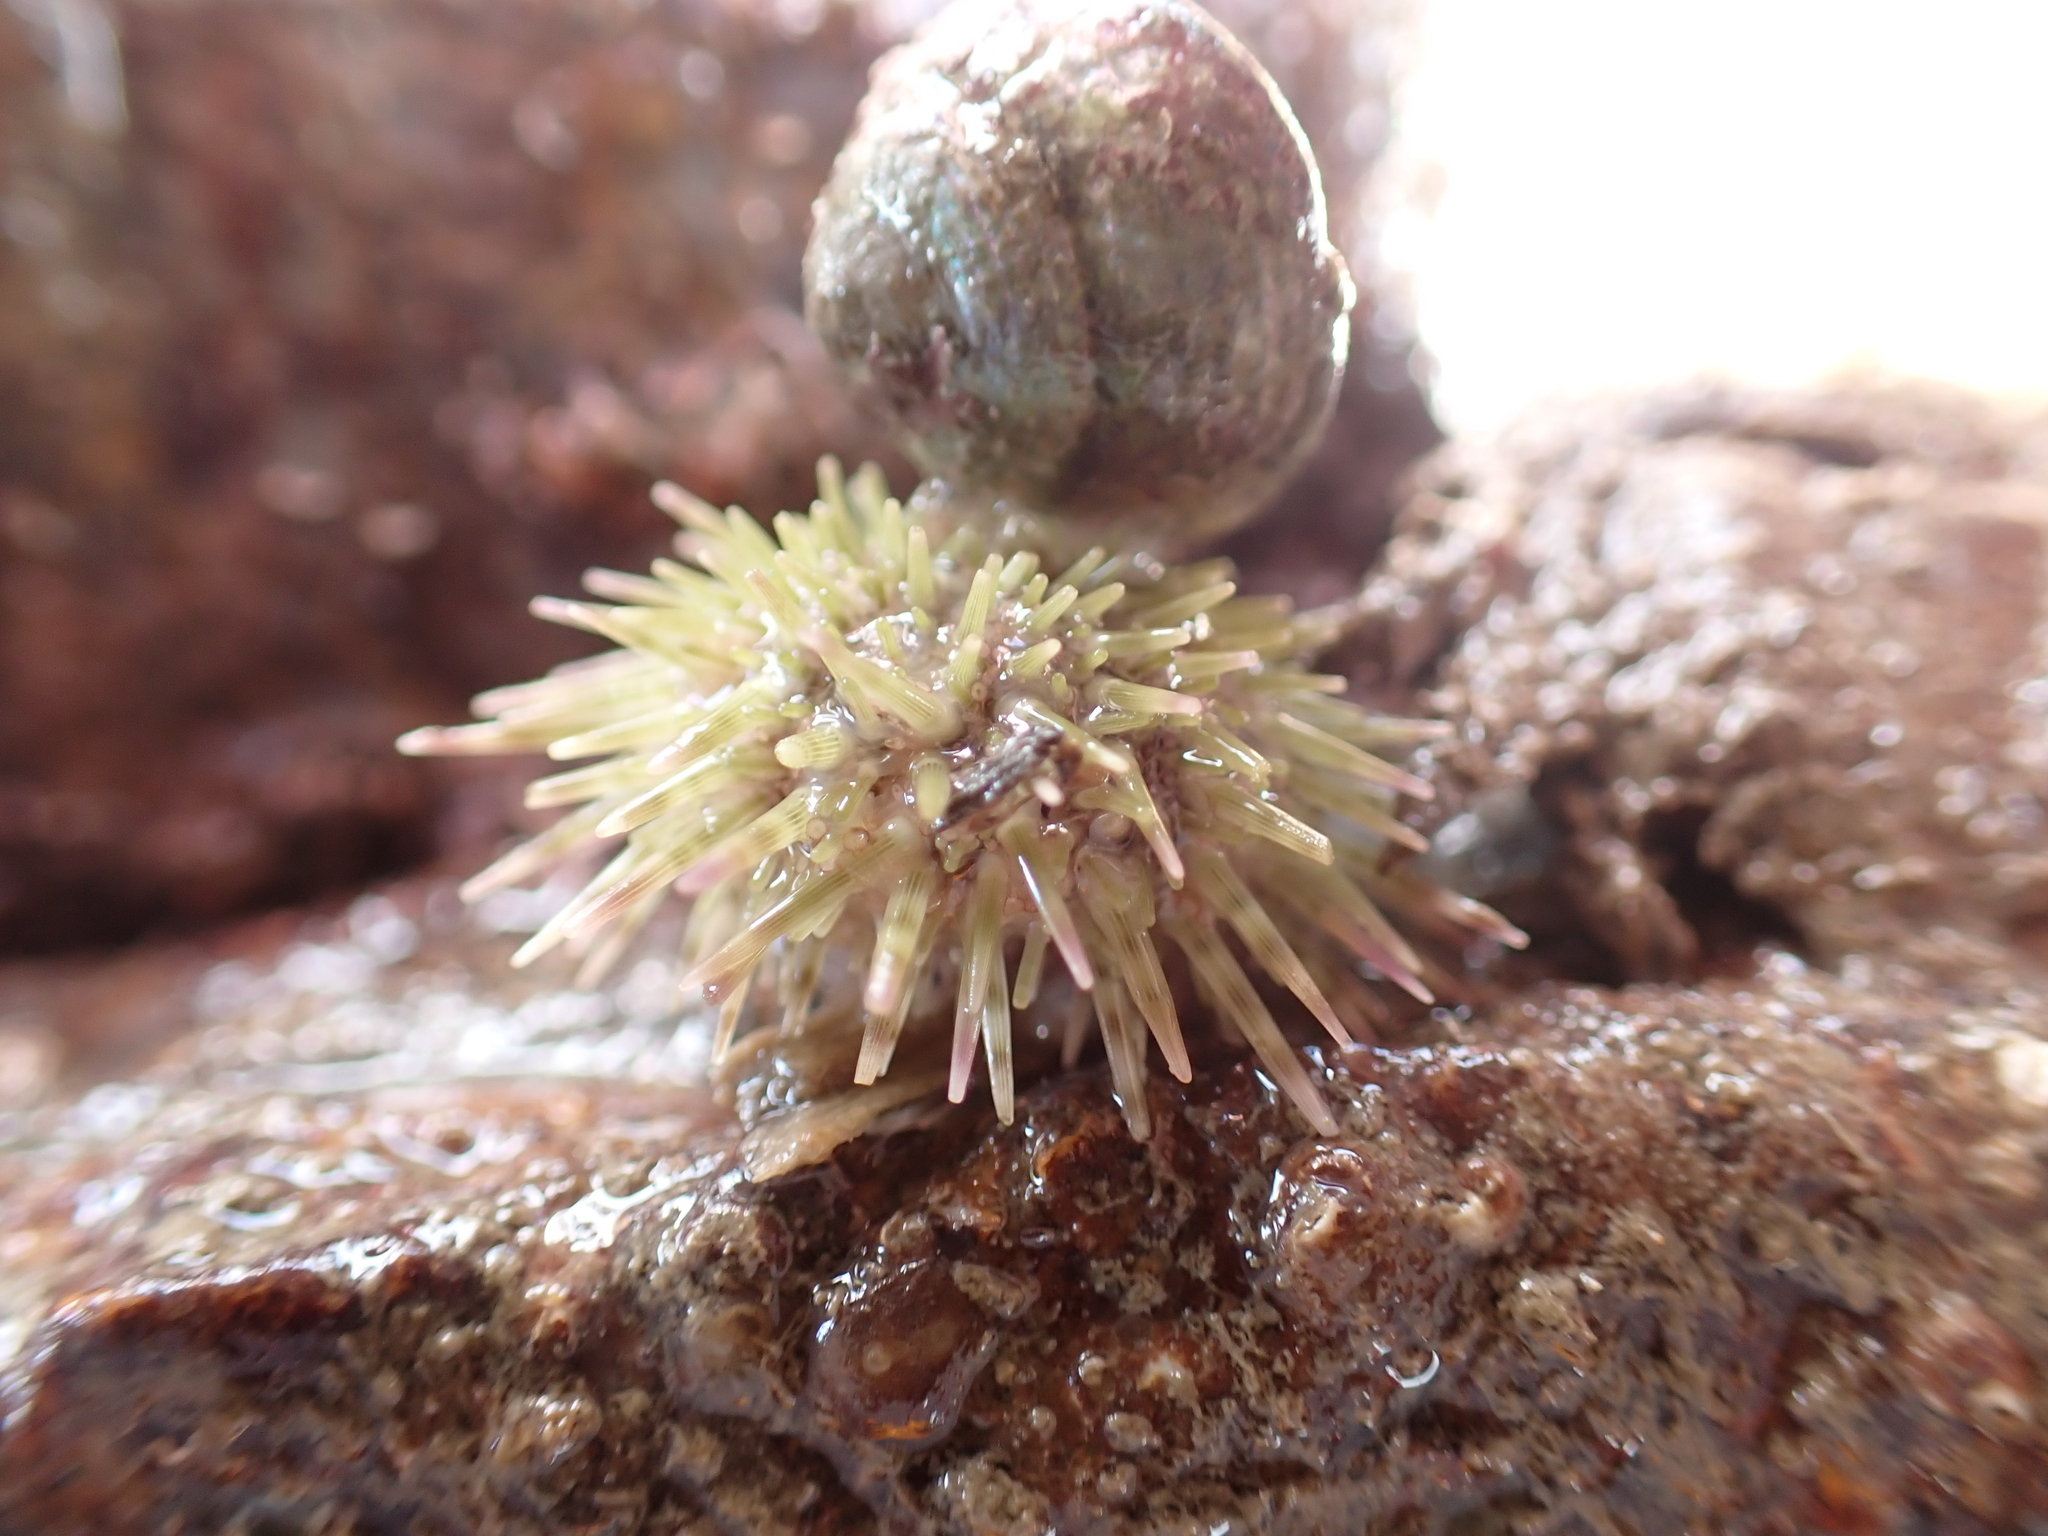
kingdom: Animalia
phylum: Echinodermata
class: Echinoidea
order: Camarodonta
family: Parechinidae
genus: Psammechinus
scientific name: Psammechinus miliaris
